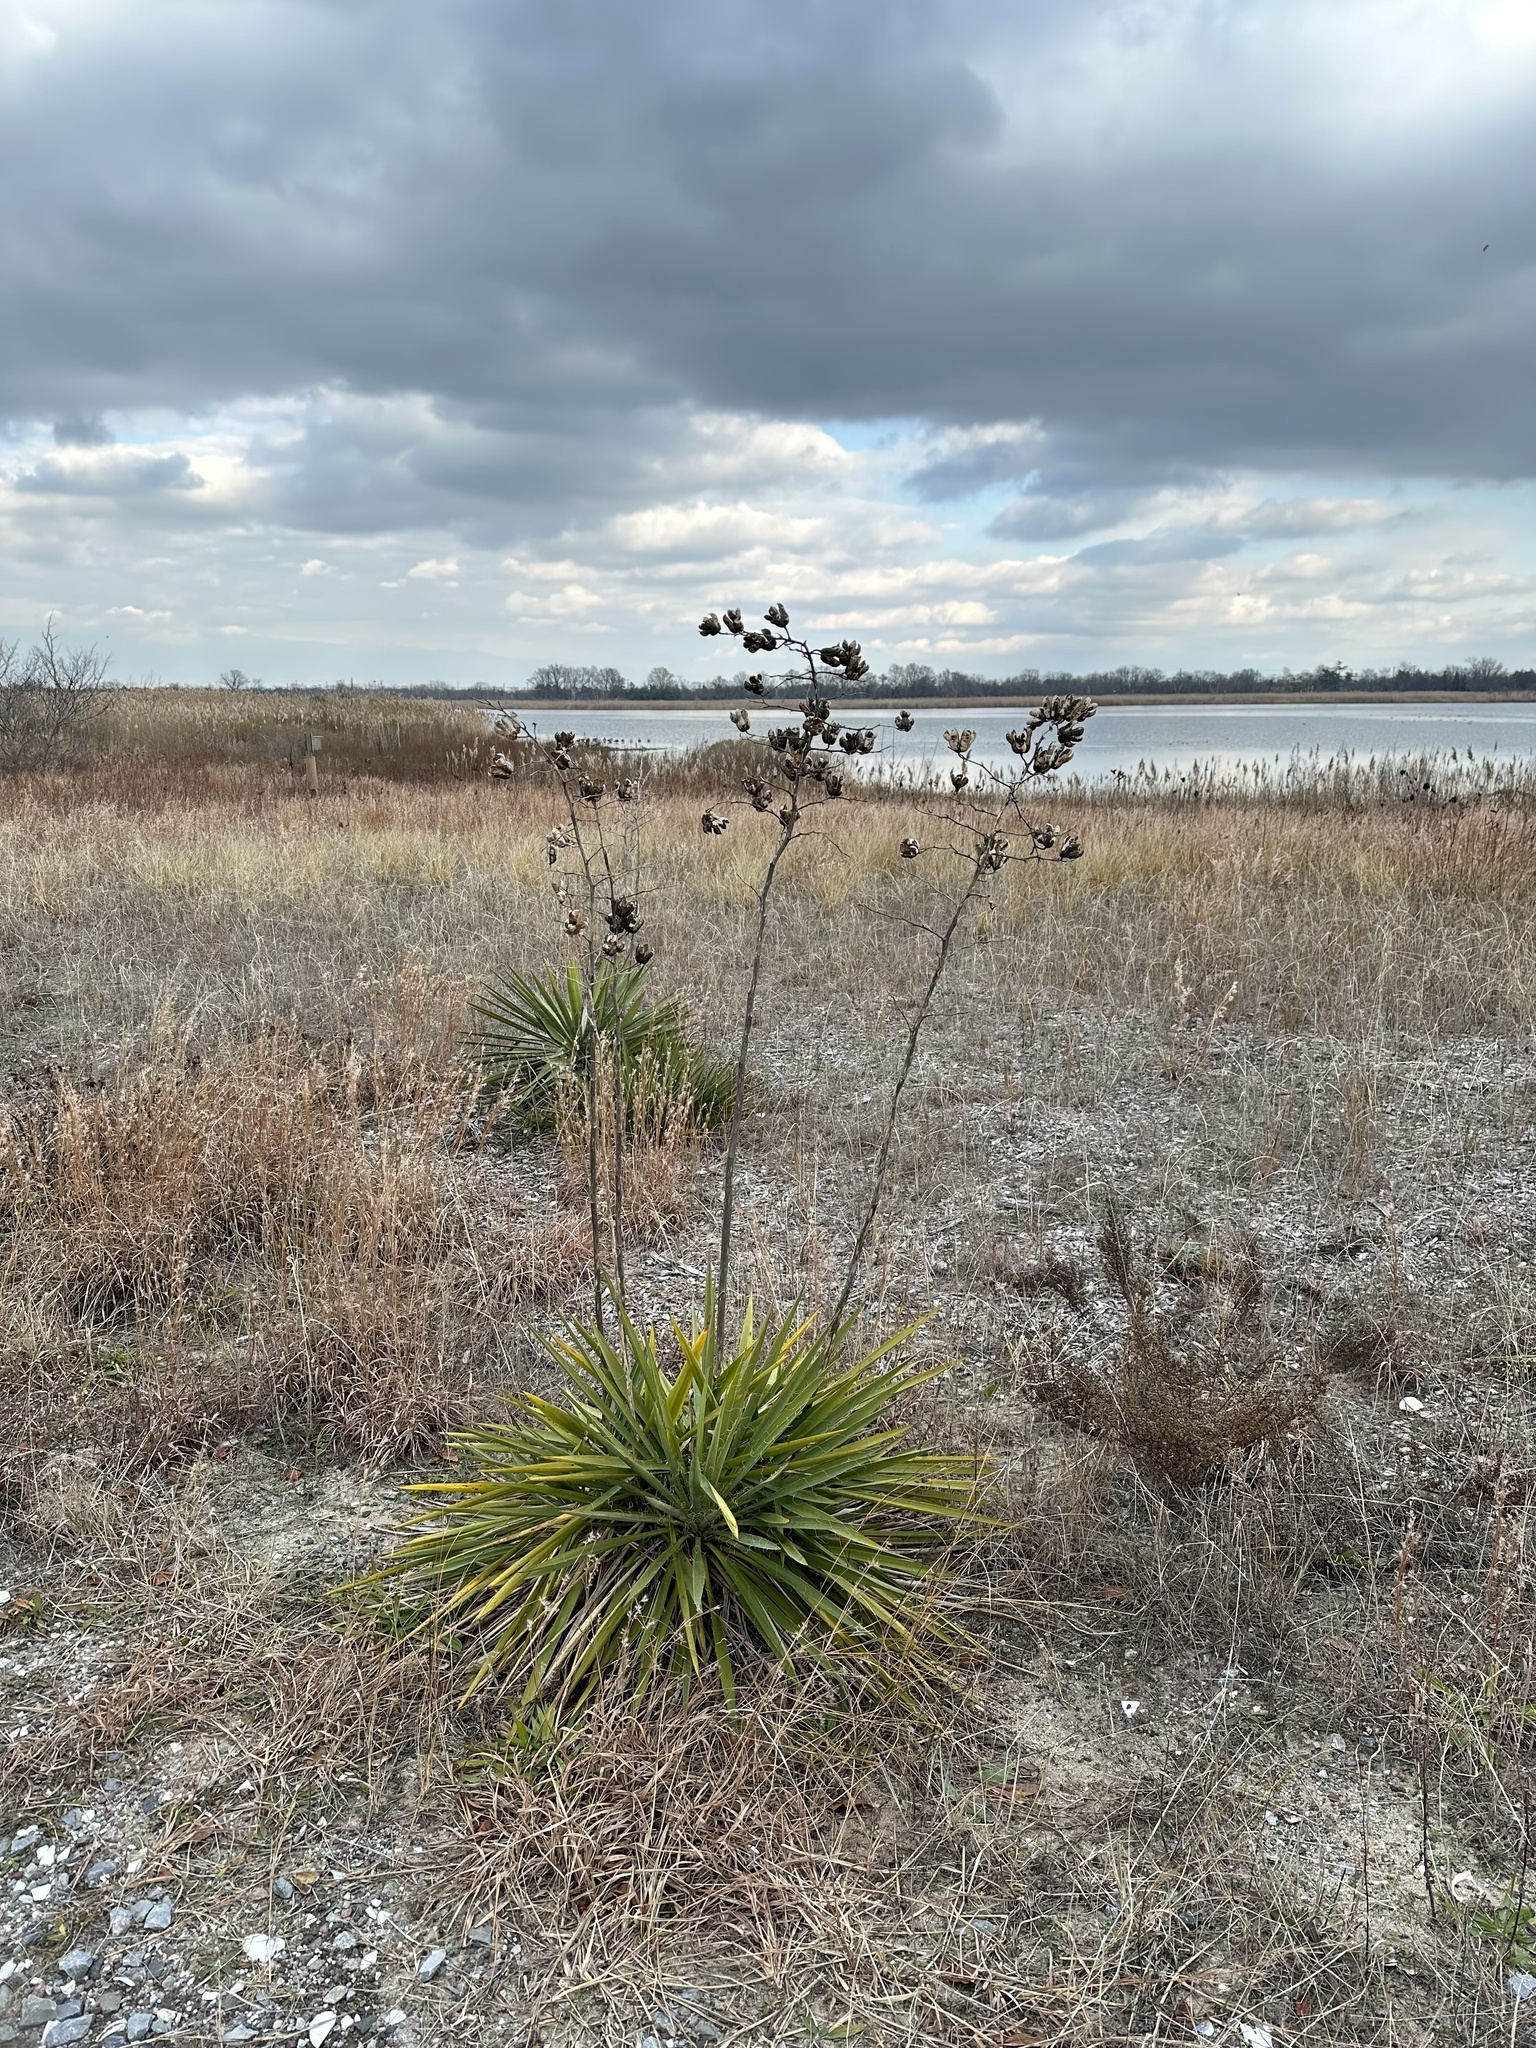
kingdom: Plantae
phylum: Tracheophyta
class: Liliopsida
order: Asparagales
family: Asparagaceae
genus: Yucca
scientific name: Yucca filamentosa
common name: Adam's-needle
